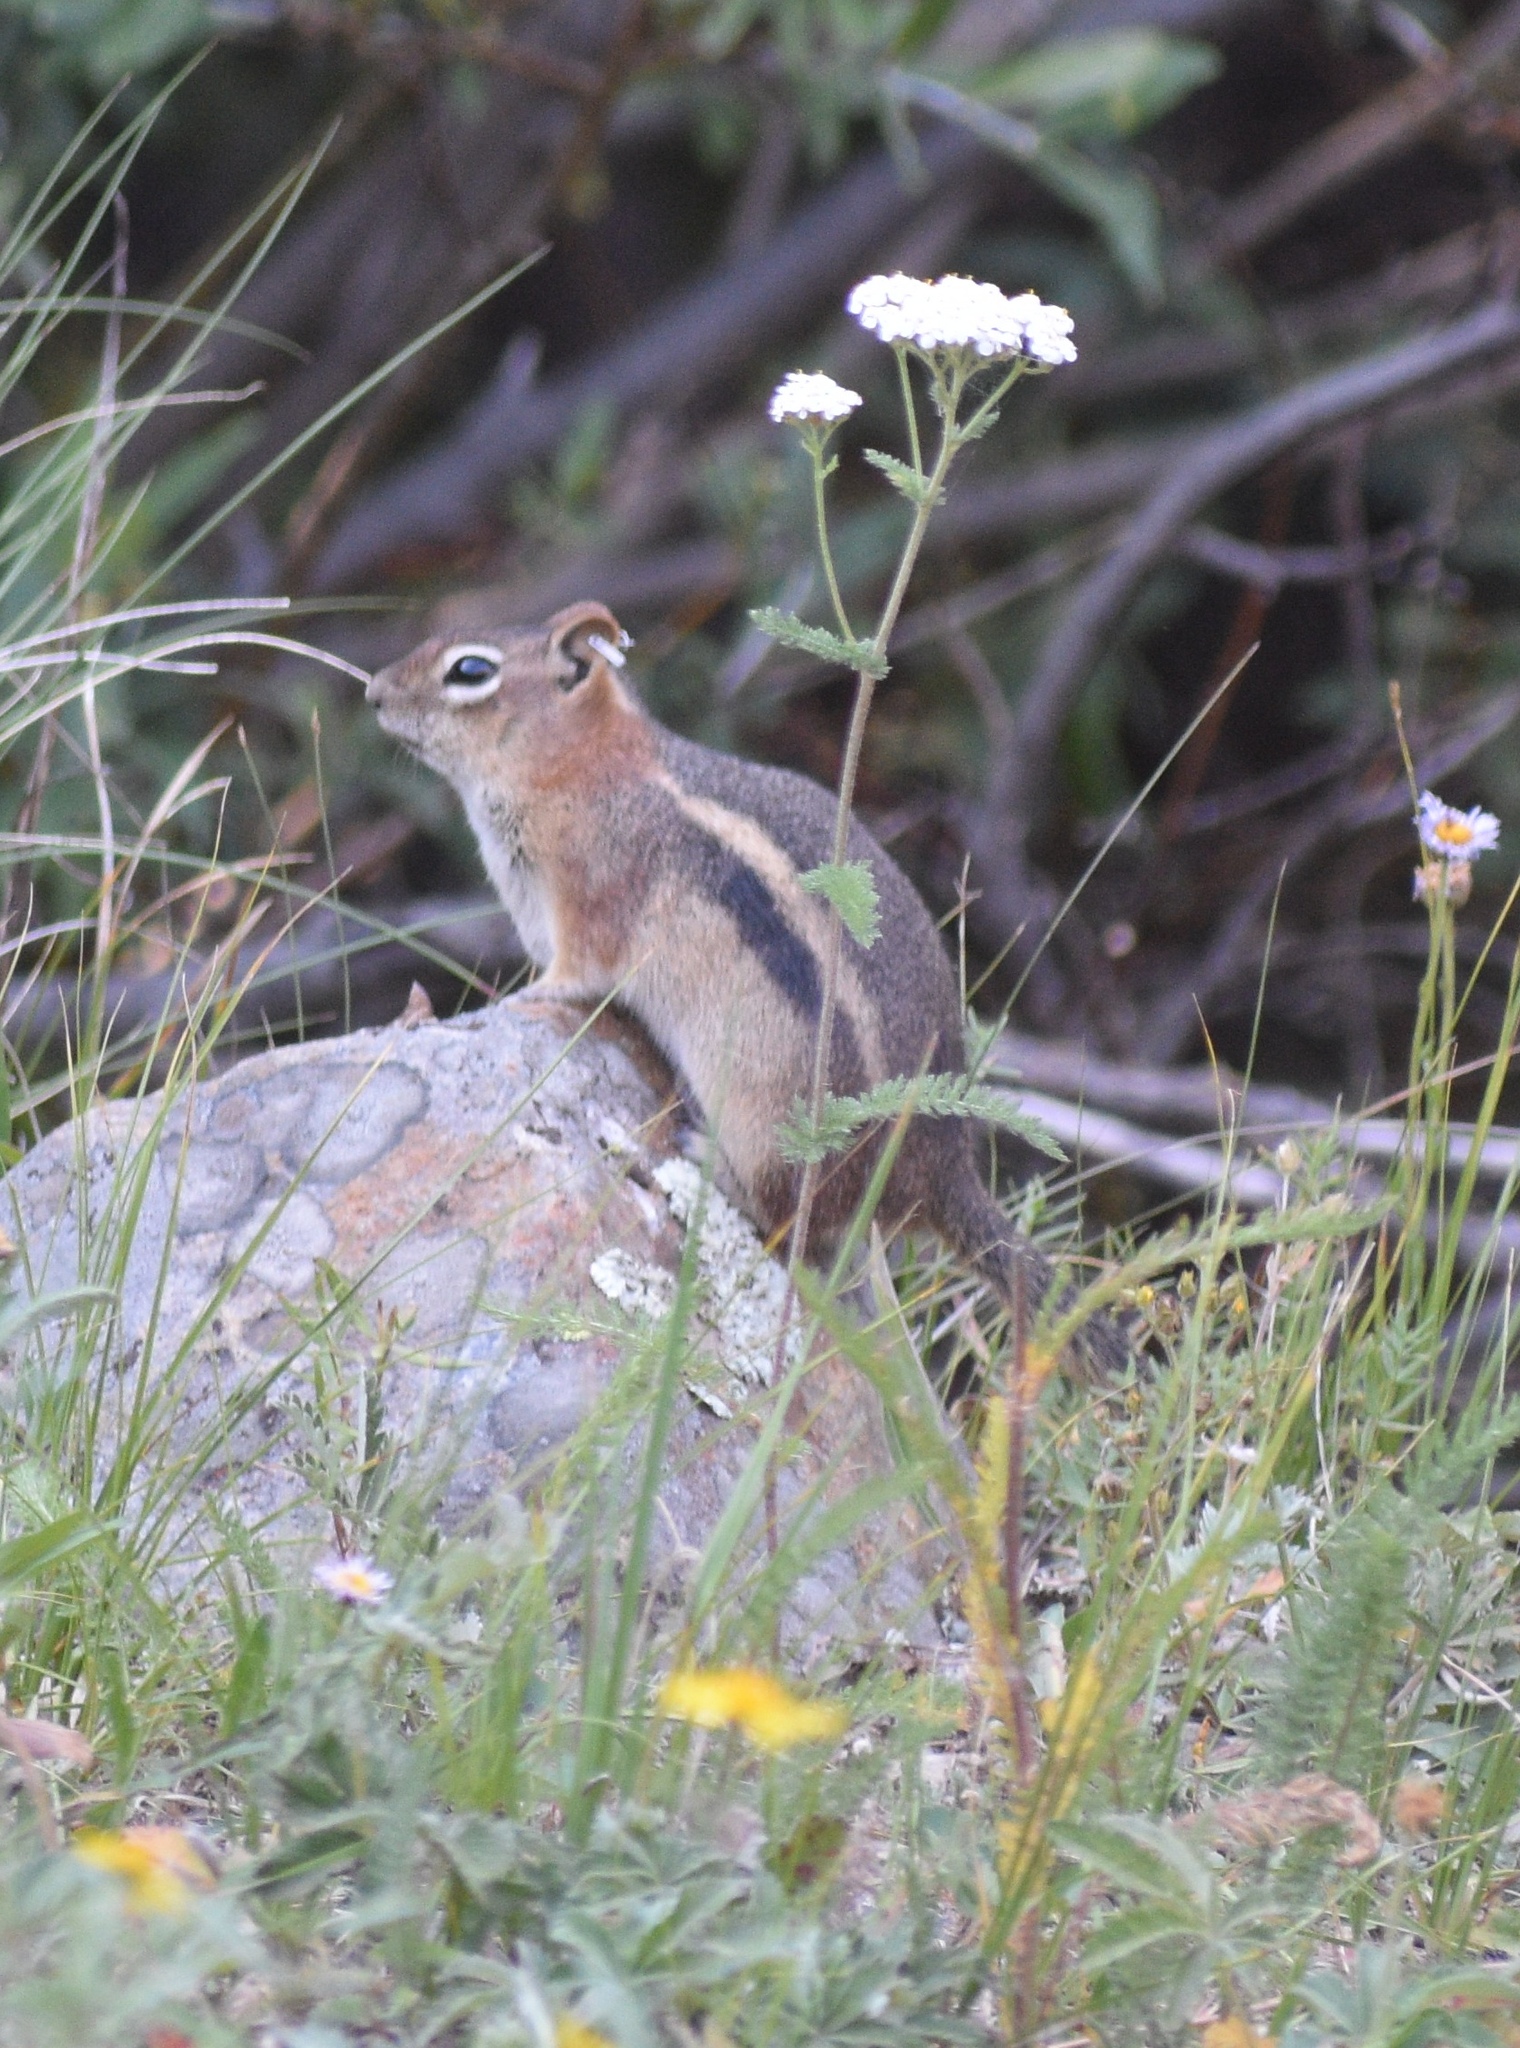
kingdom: Animalia
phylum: Chordata
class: Mammalia
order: Rodentia
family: Sciuridae
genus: Callospermophilus
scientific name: Callospermophilus lateralis
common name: Golden-mantled ground squirrel
